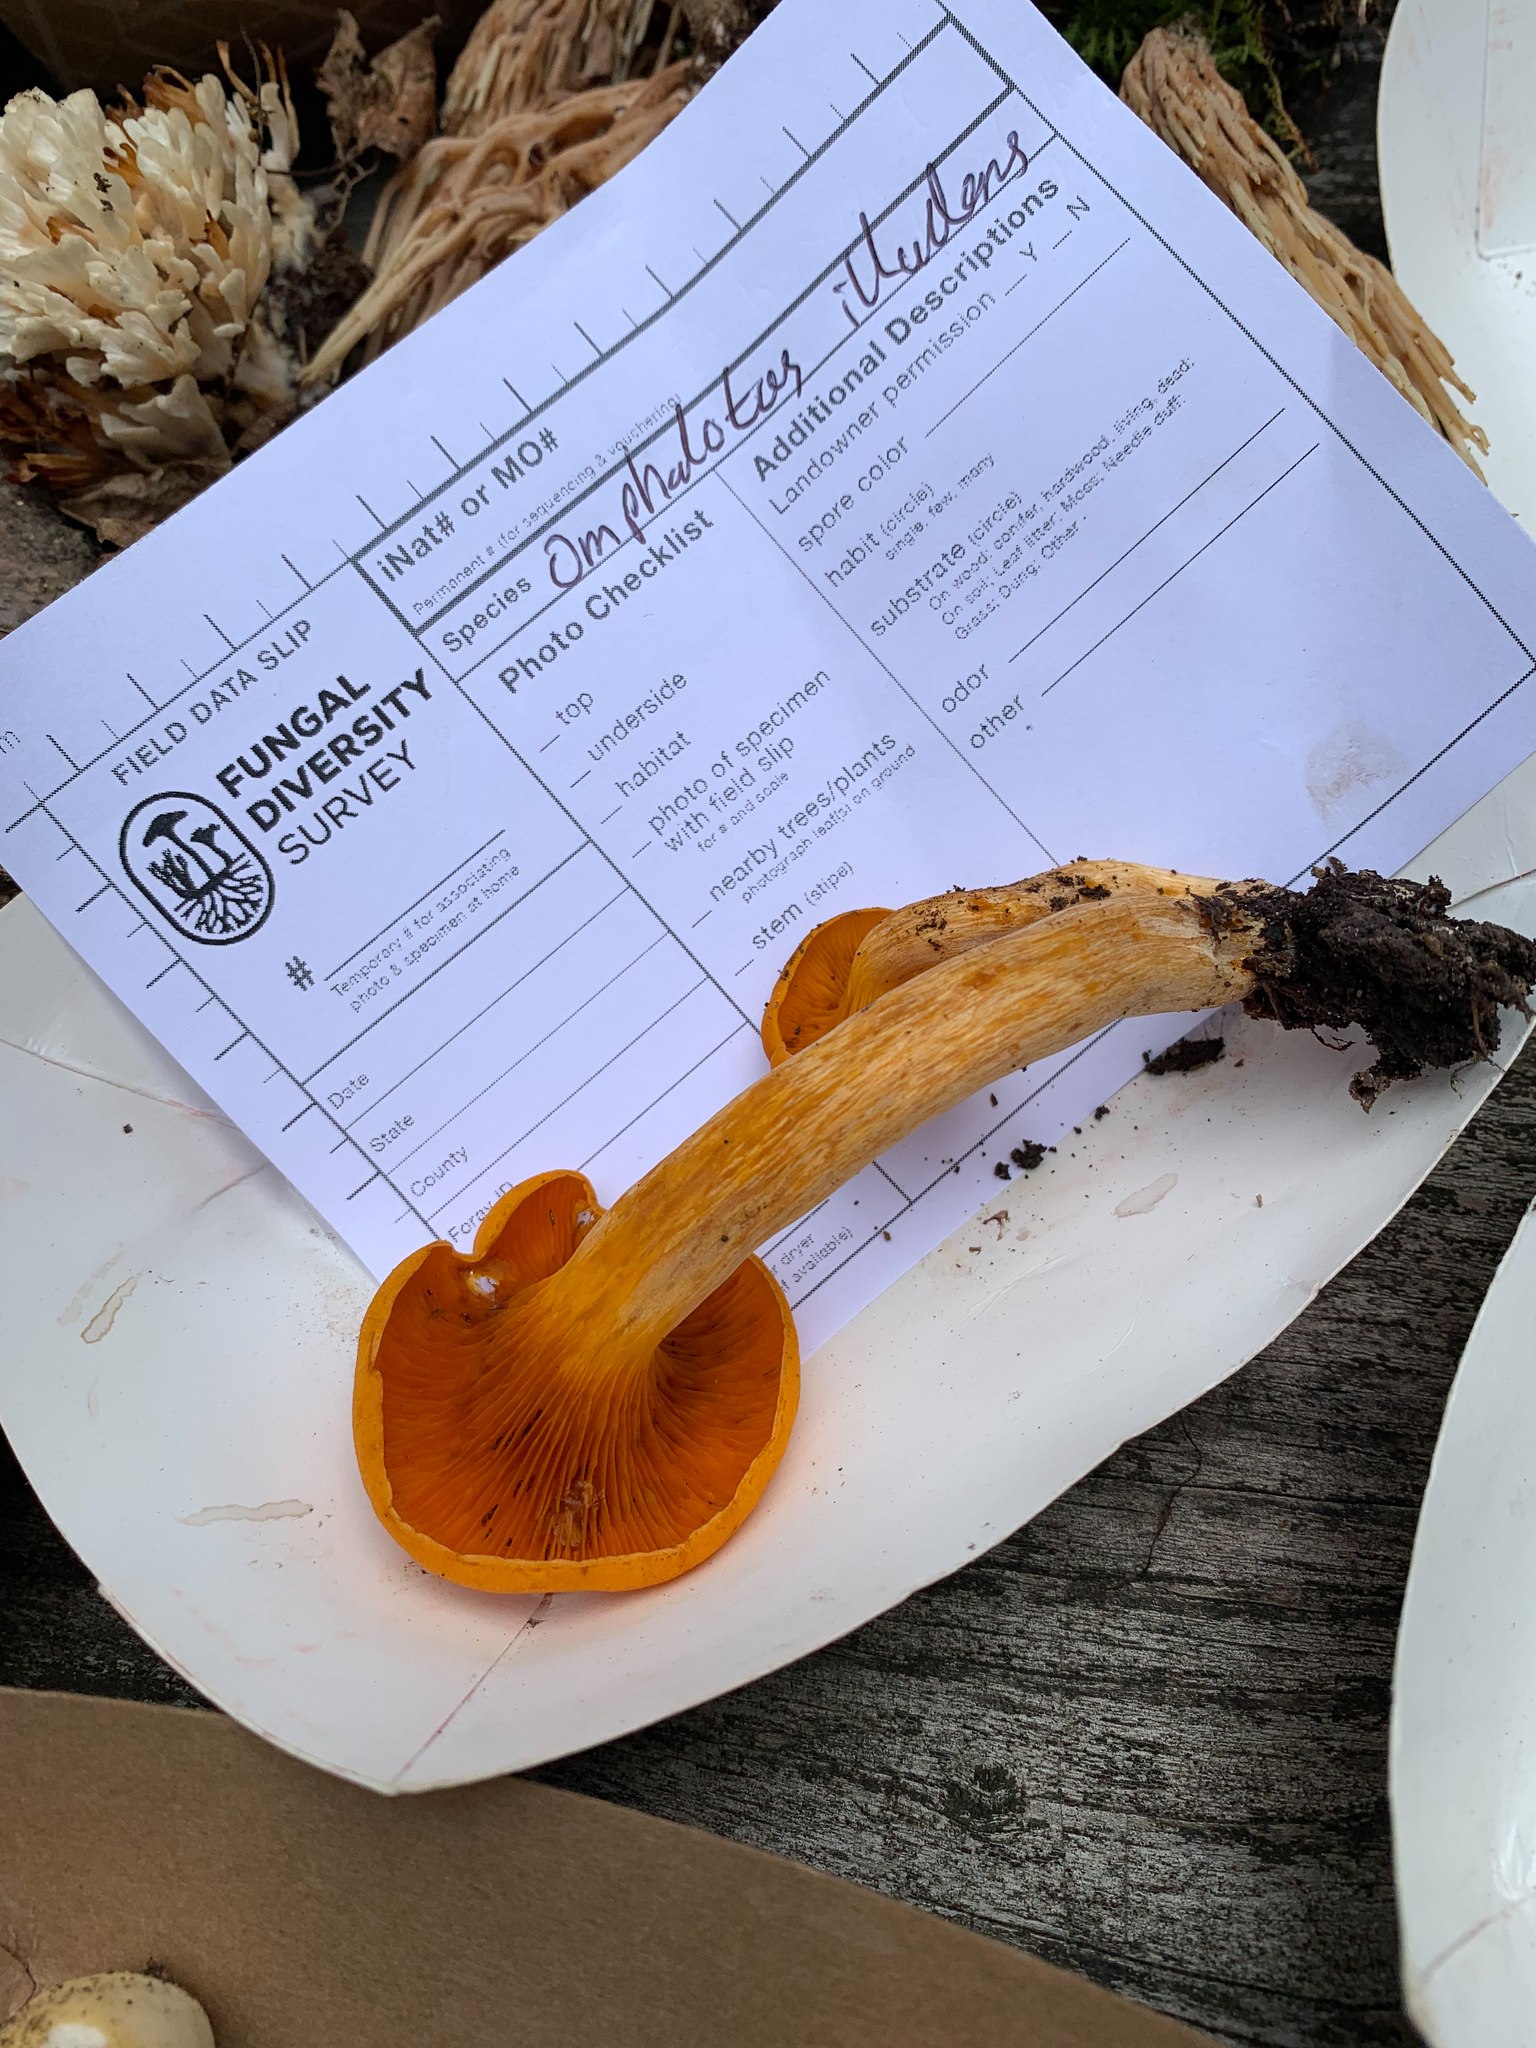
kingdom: Fungi
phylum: Basidiomycota
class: Agaricomycetes
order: Agaricales
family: Omphalotaceae
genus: Omphalotus
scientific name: Omphalotus illudens
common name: Jack o lantern
